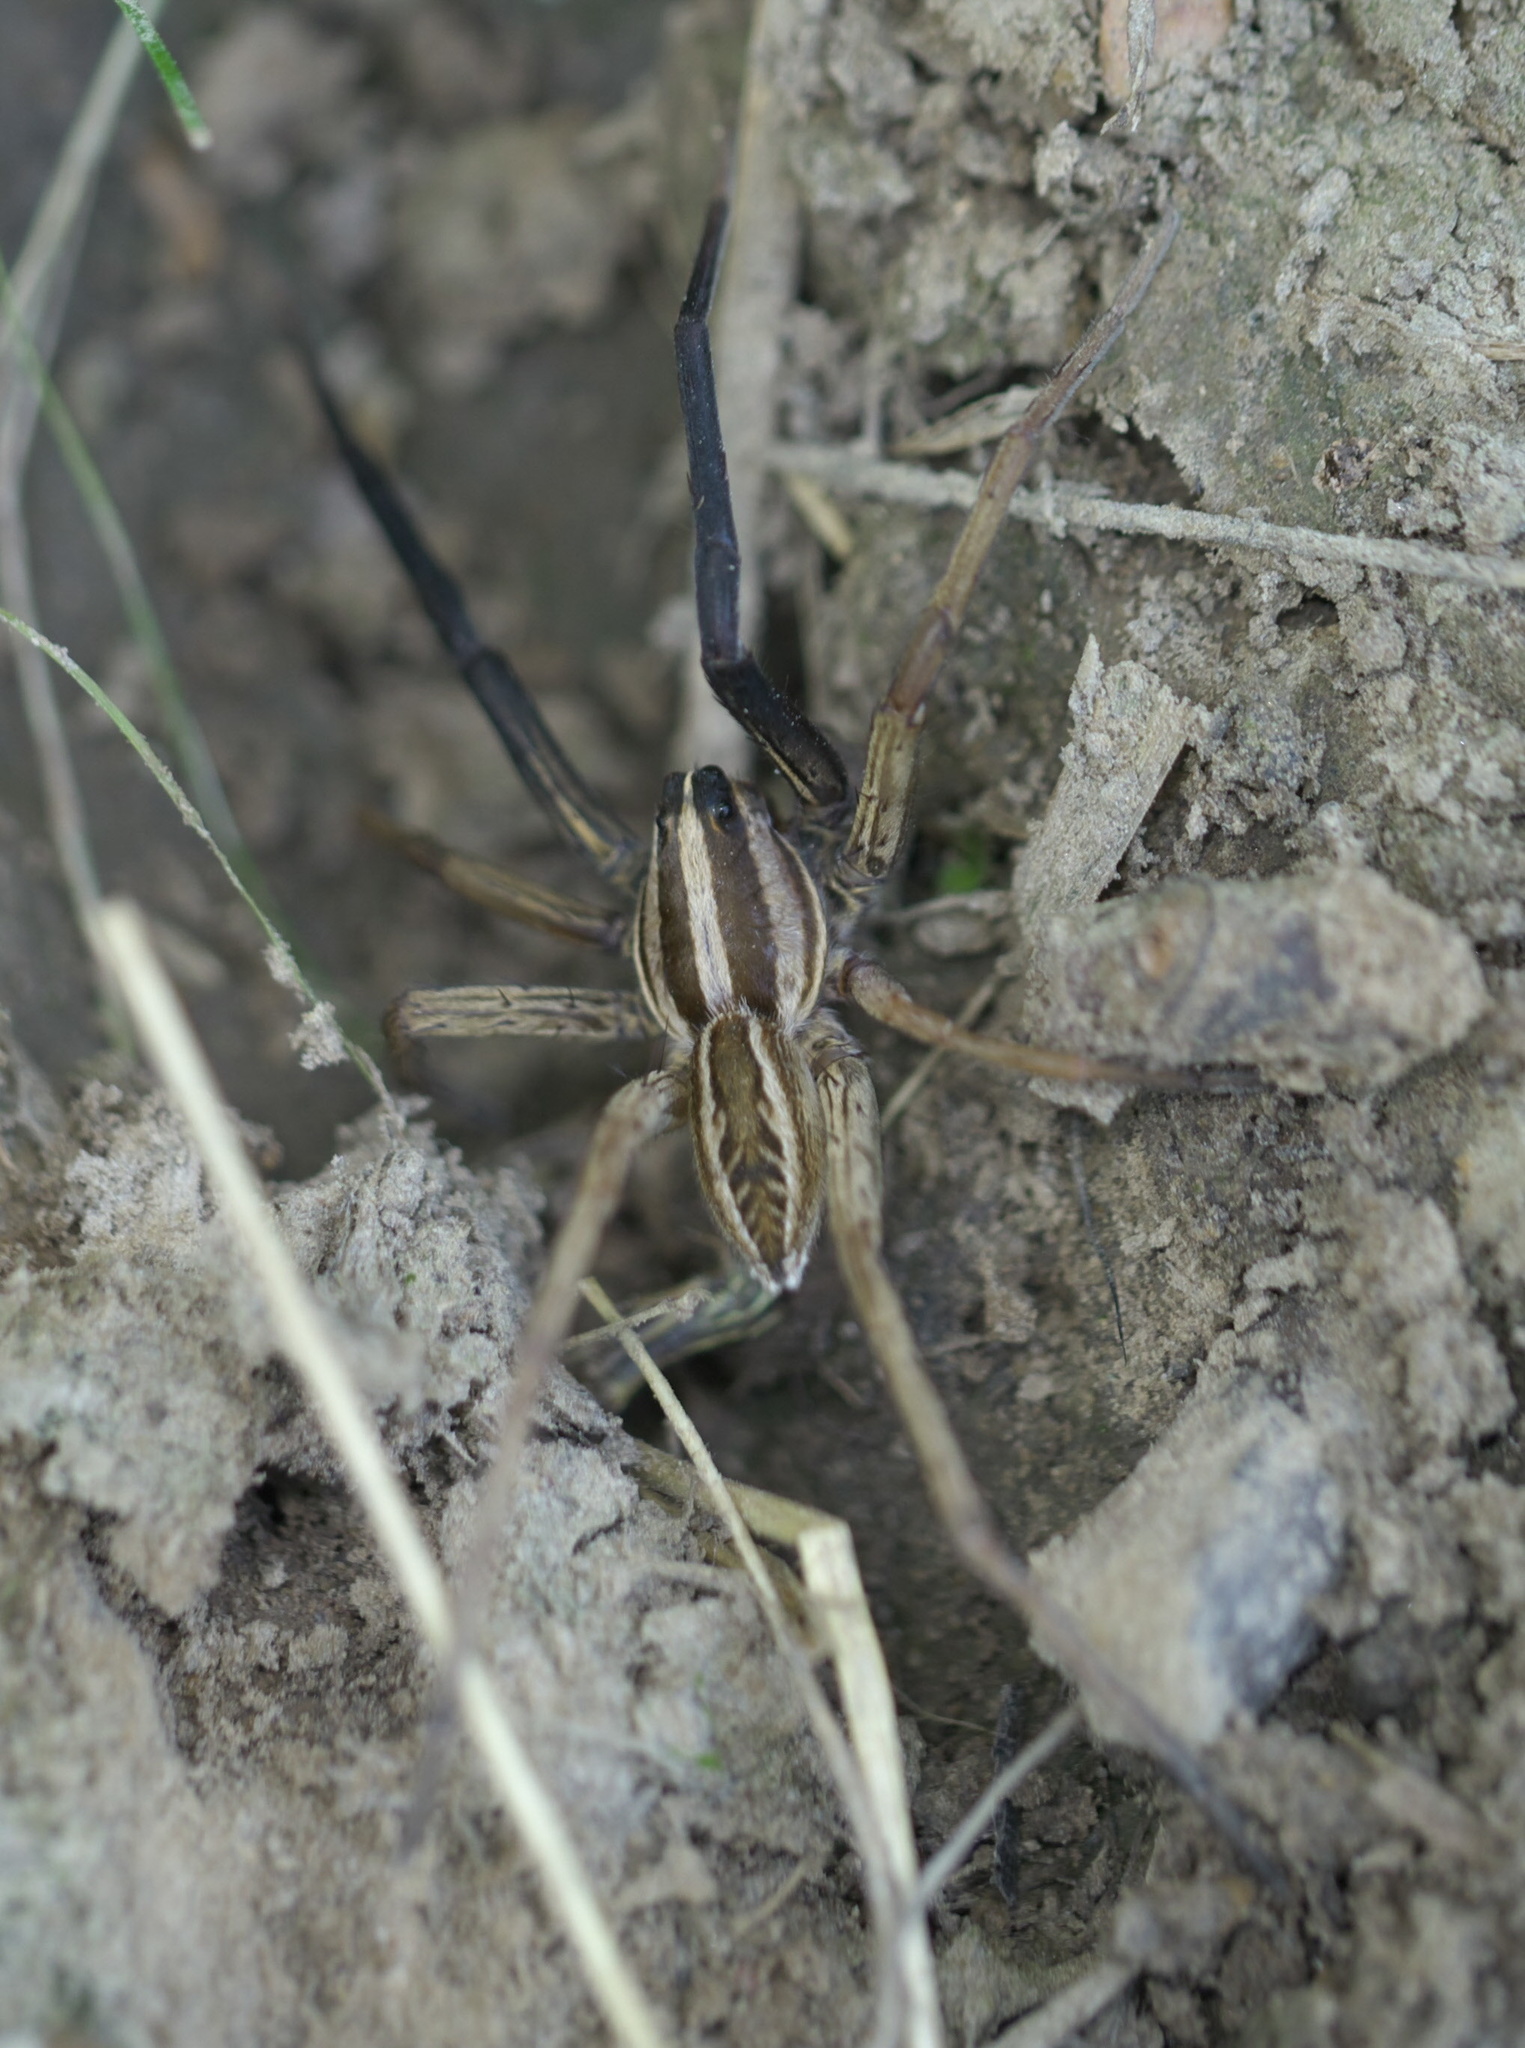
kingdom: Animalia
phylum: Arthropoda
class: Arachnida
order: Araneae
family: Lycosidae
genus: Rabidosa
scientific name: Rabidosa rabida
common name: Rabid wolf spider
